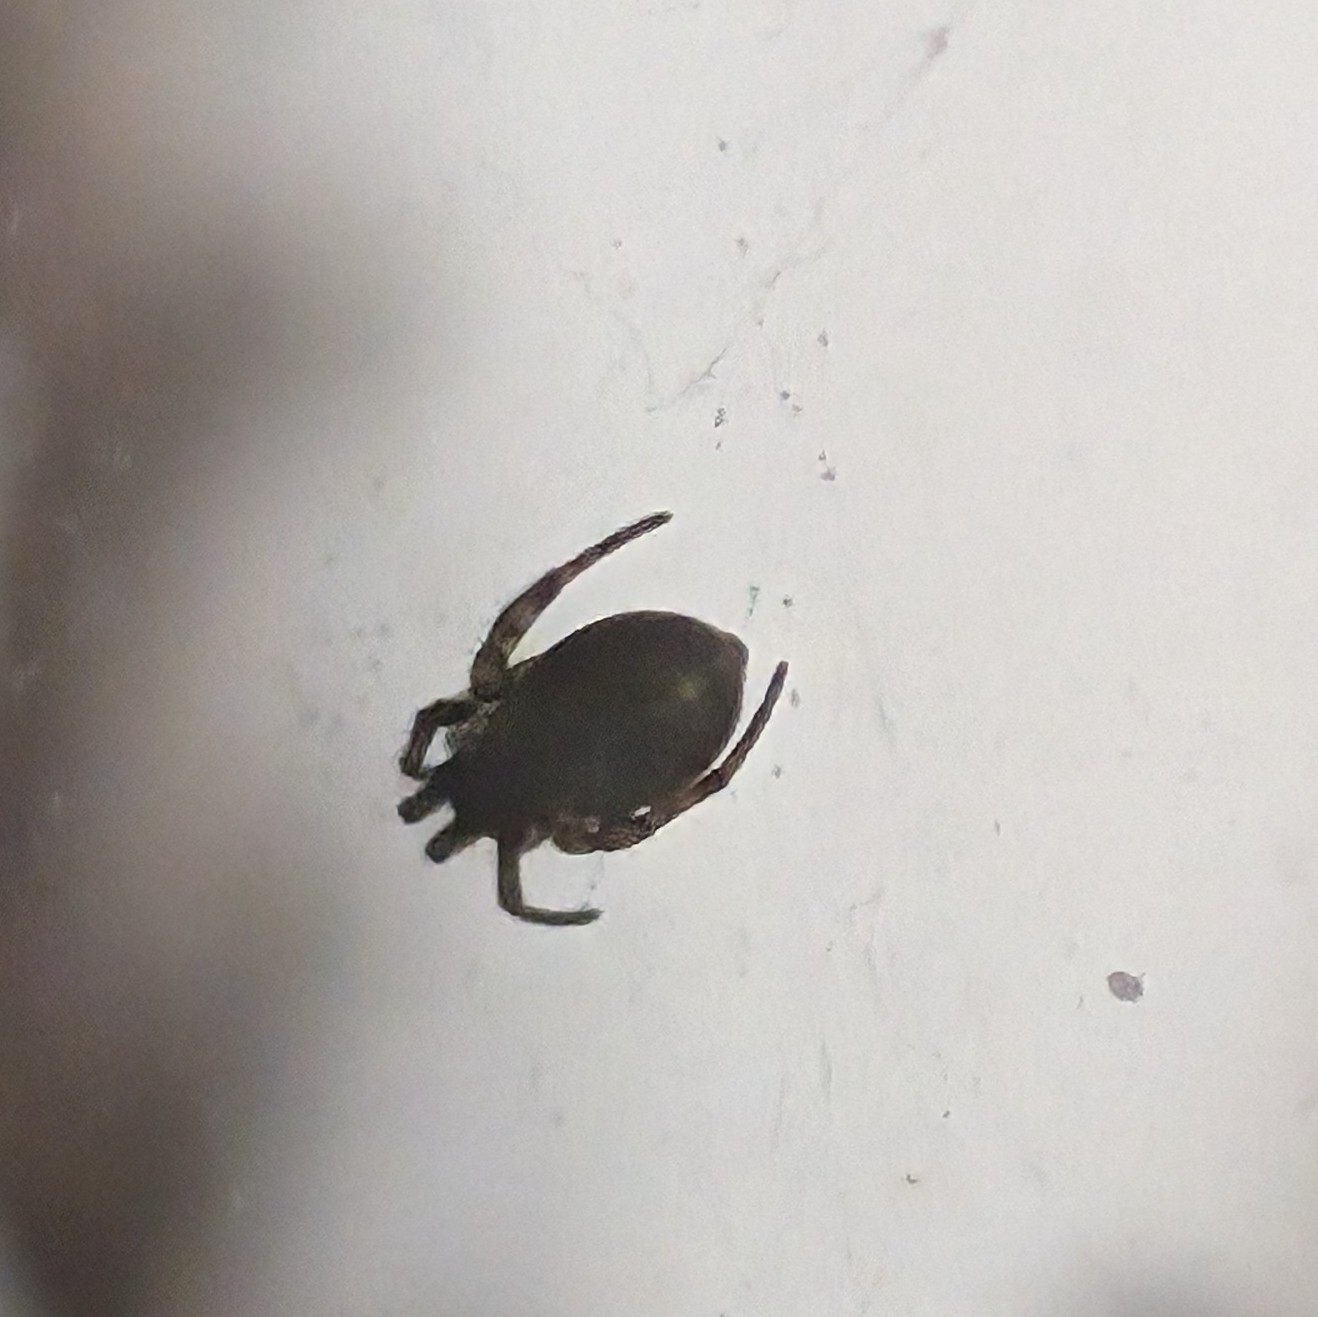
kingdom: Animalia
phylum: Arthropoda
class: Arachnida
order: Araneae
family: Araneidae
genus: Nuctenea
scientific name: Nuctenea umbratica
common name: Toad spider
